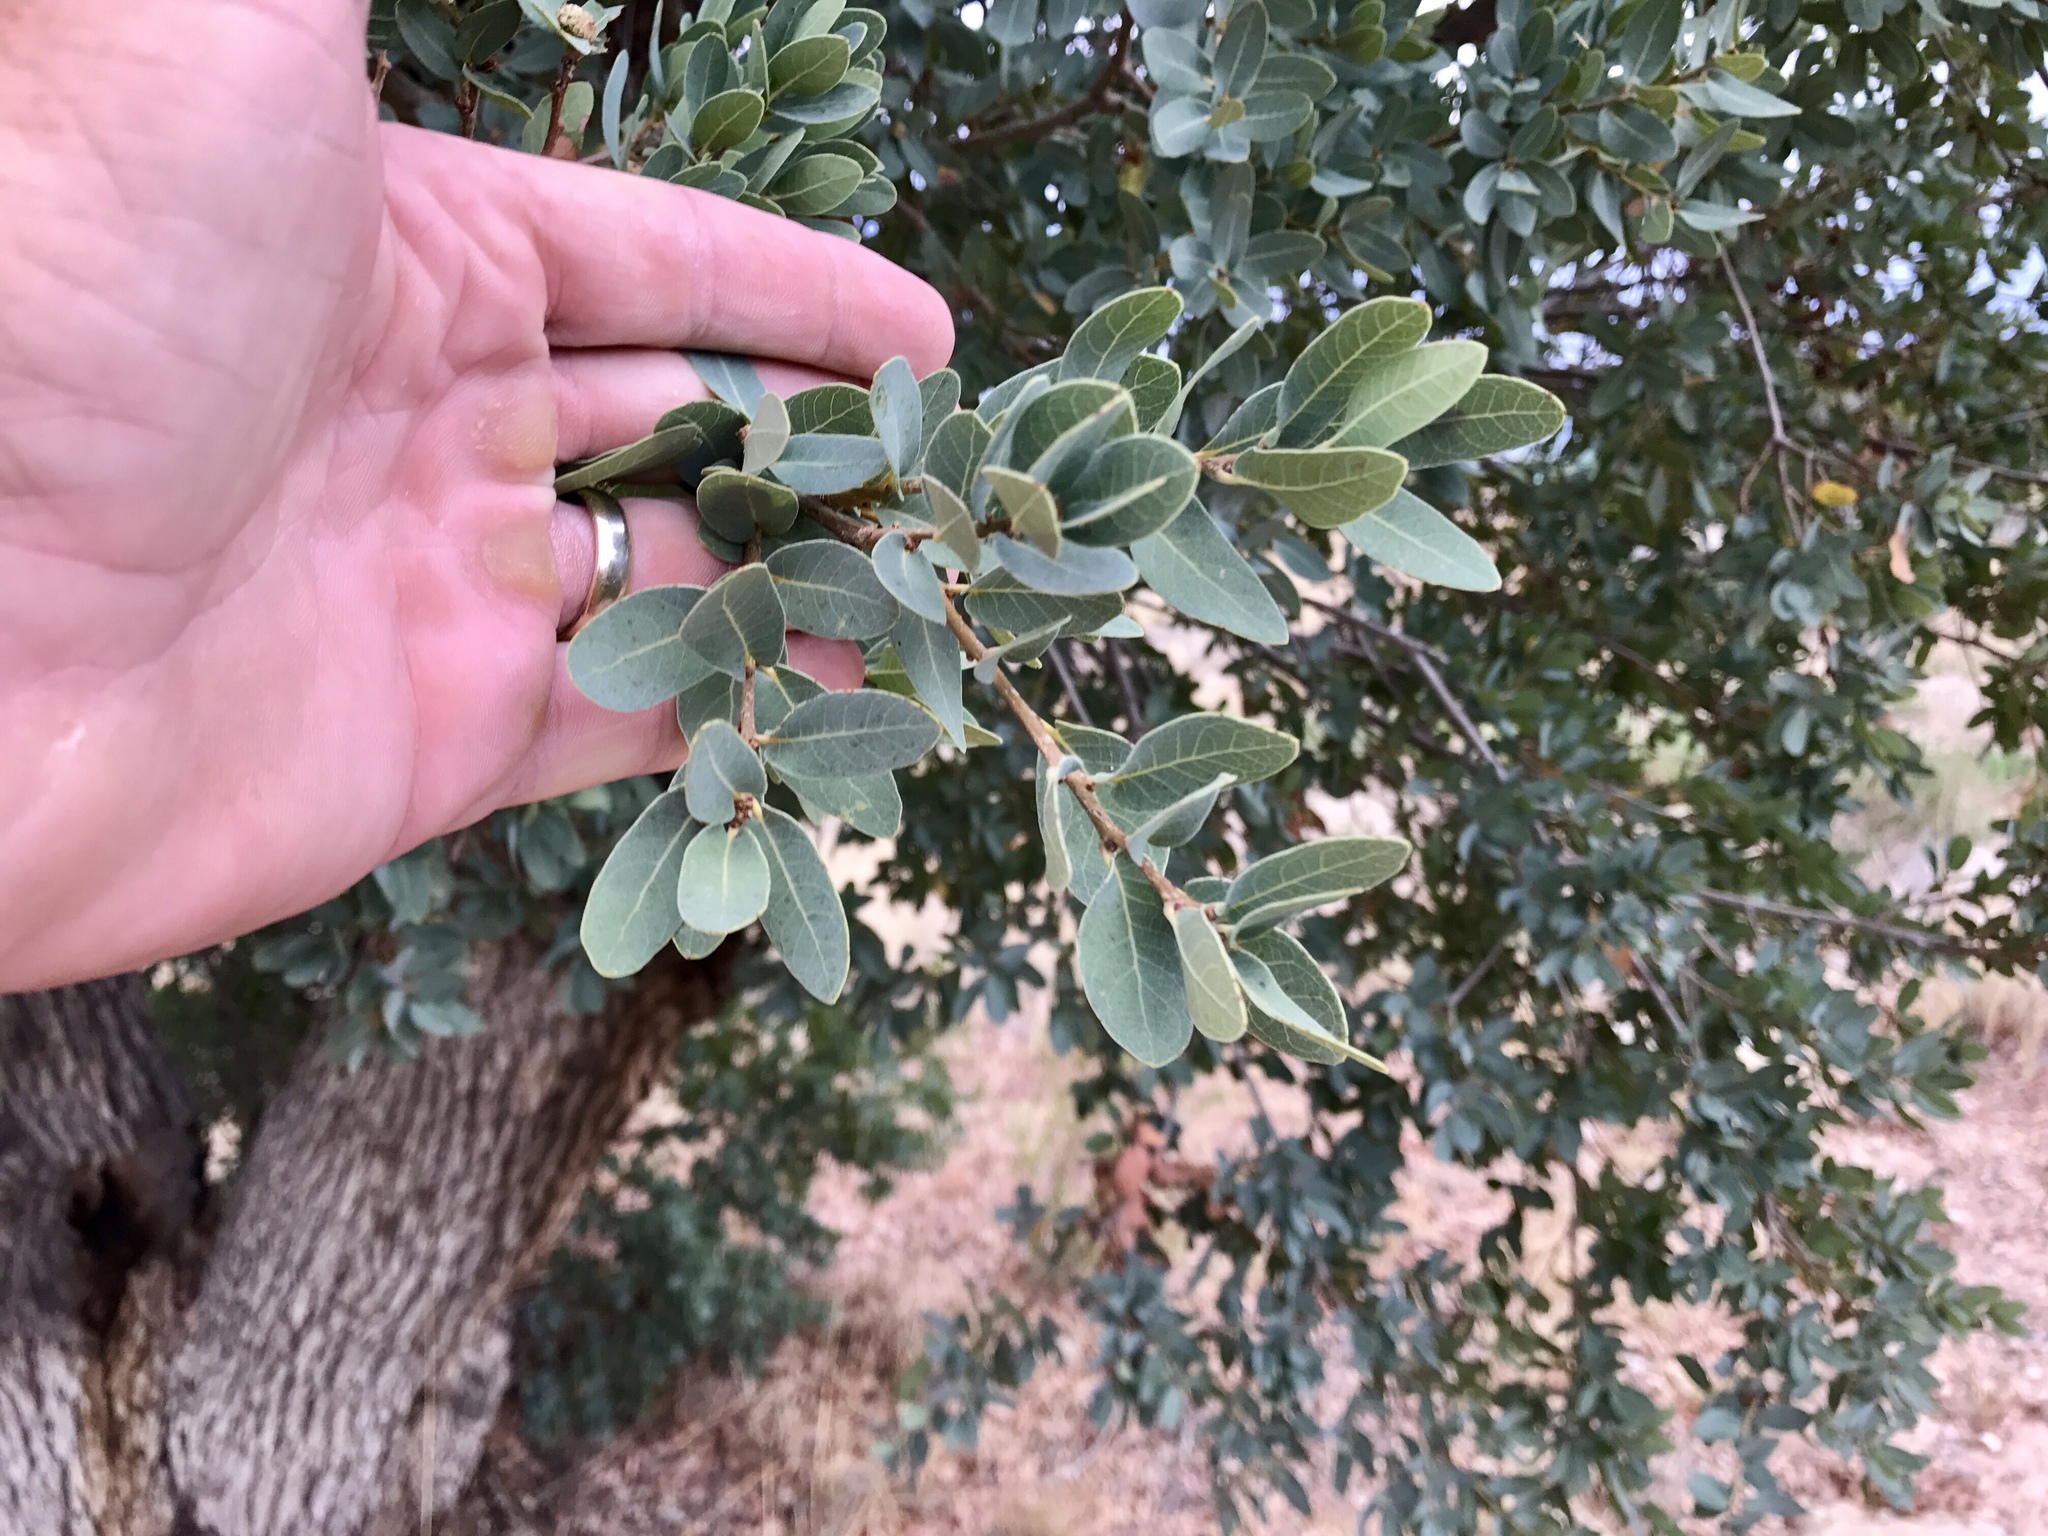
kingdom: Plantae
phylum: Tracheophyta
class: Magnoliopsida
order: Fagales
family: Fagaceae
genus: Quercus
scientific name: Quercus oblongifolia
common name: Mexican blue oak
